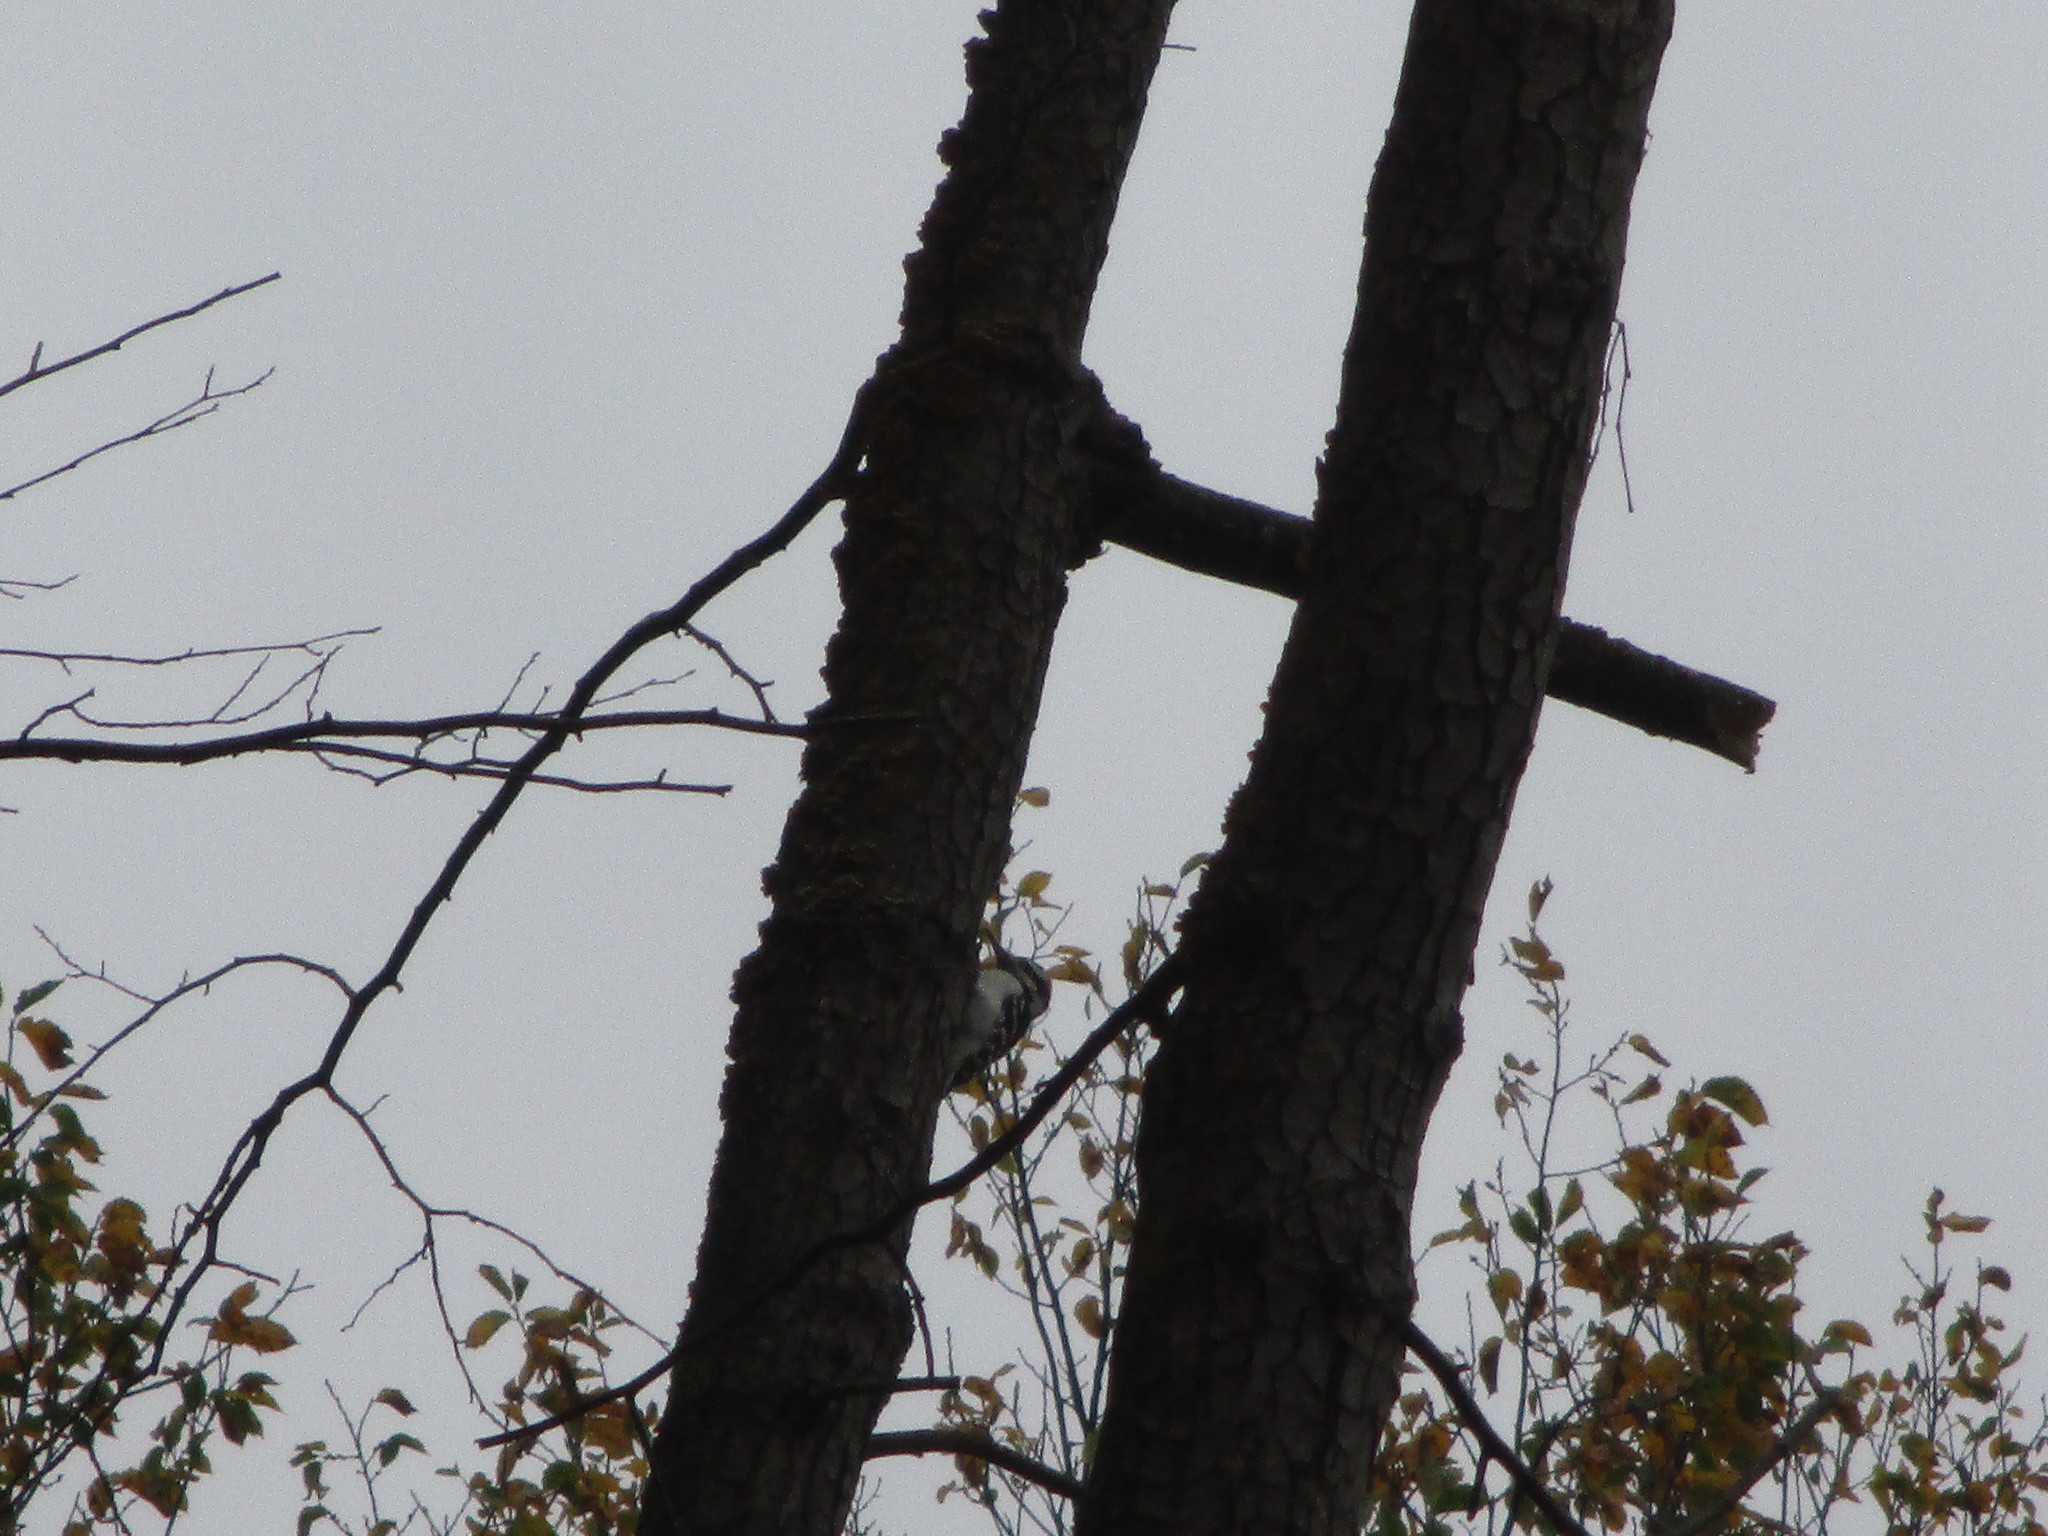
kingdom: Animalia
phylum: Chordata
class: Aves
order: Piciformes
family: Picidae
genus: Leuconotopicus
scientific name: Leuconotopicus villosus
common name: Hairy woodpecker
